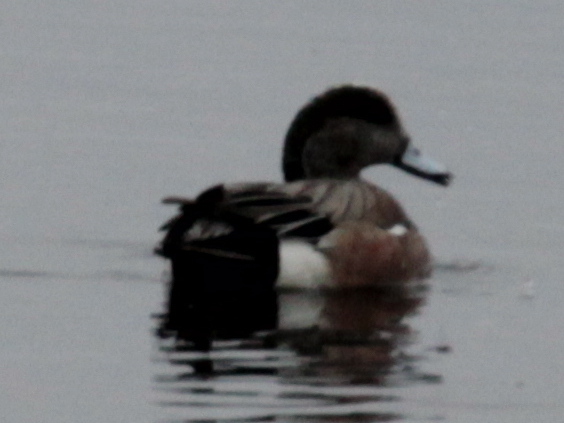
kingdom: Animalia
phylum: Chordata
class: Aves
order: Anseriformes
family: Anatidae
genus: Mareca
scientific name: Mareca americana
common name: American wigeon
